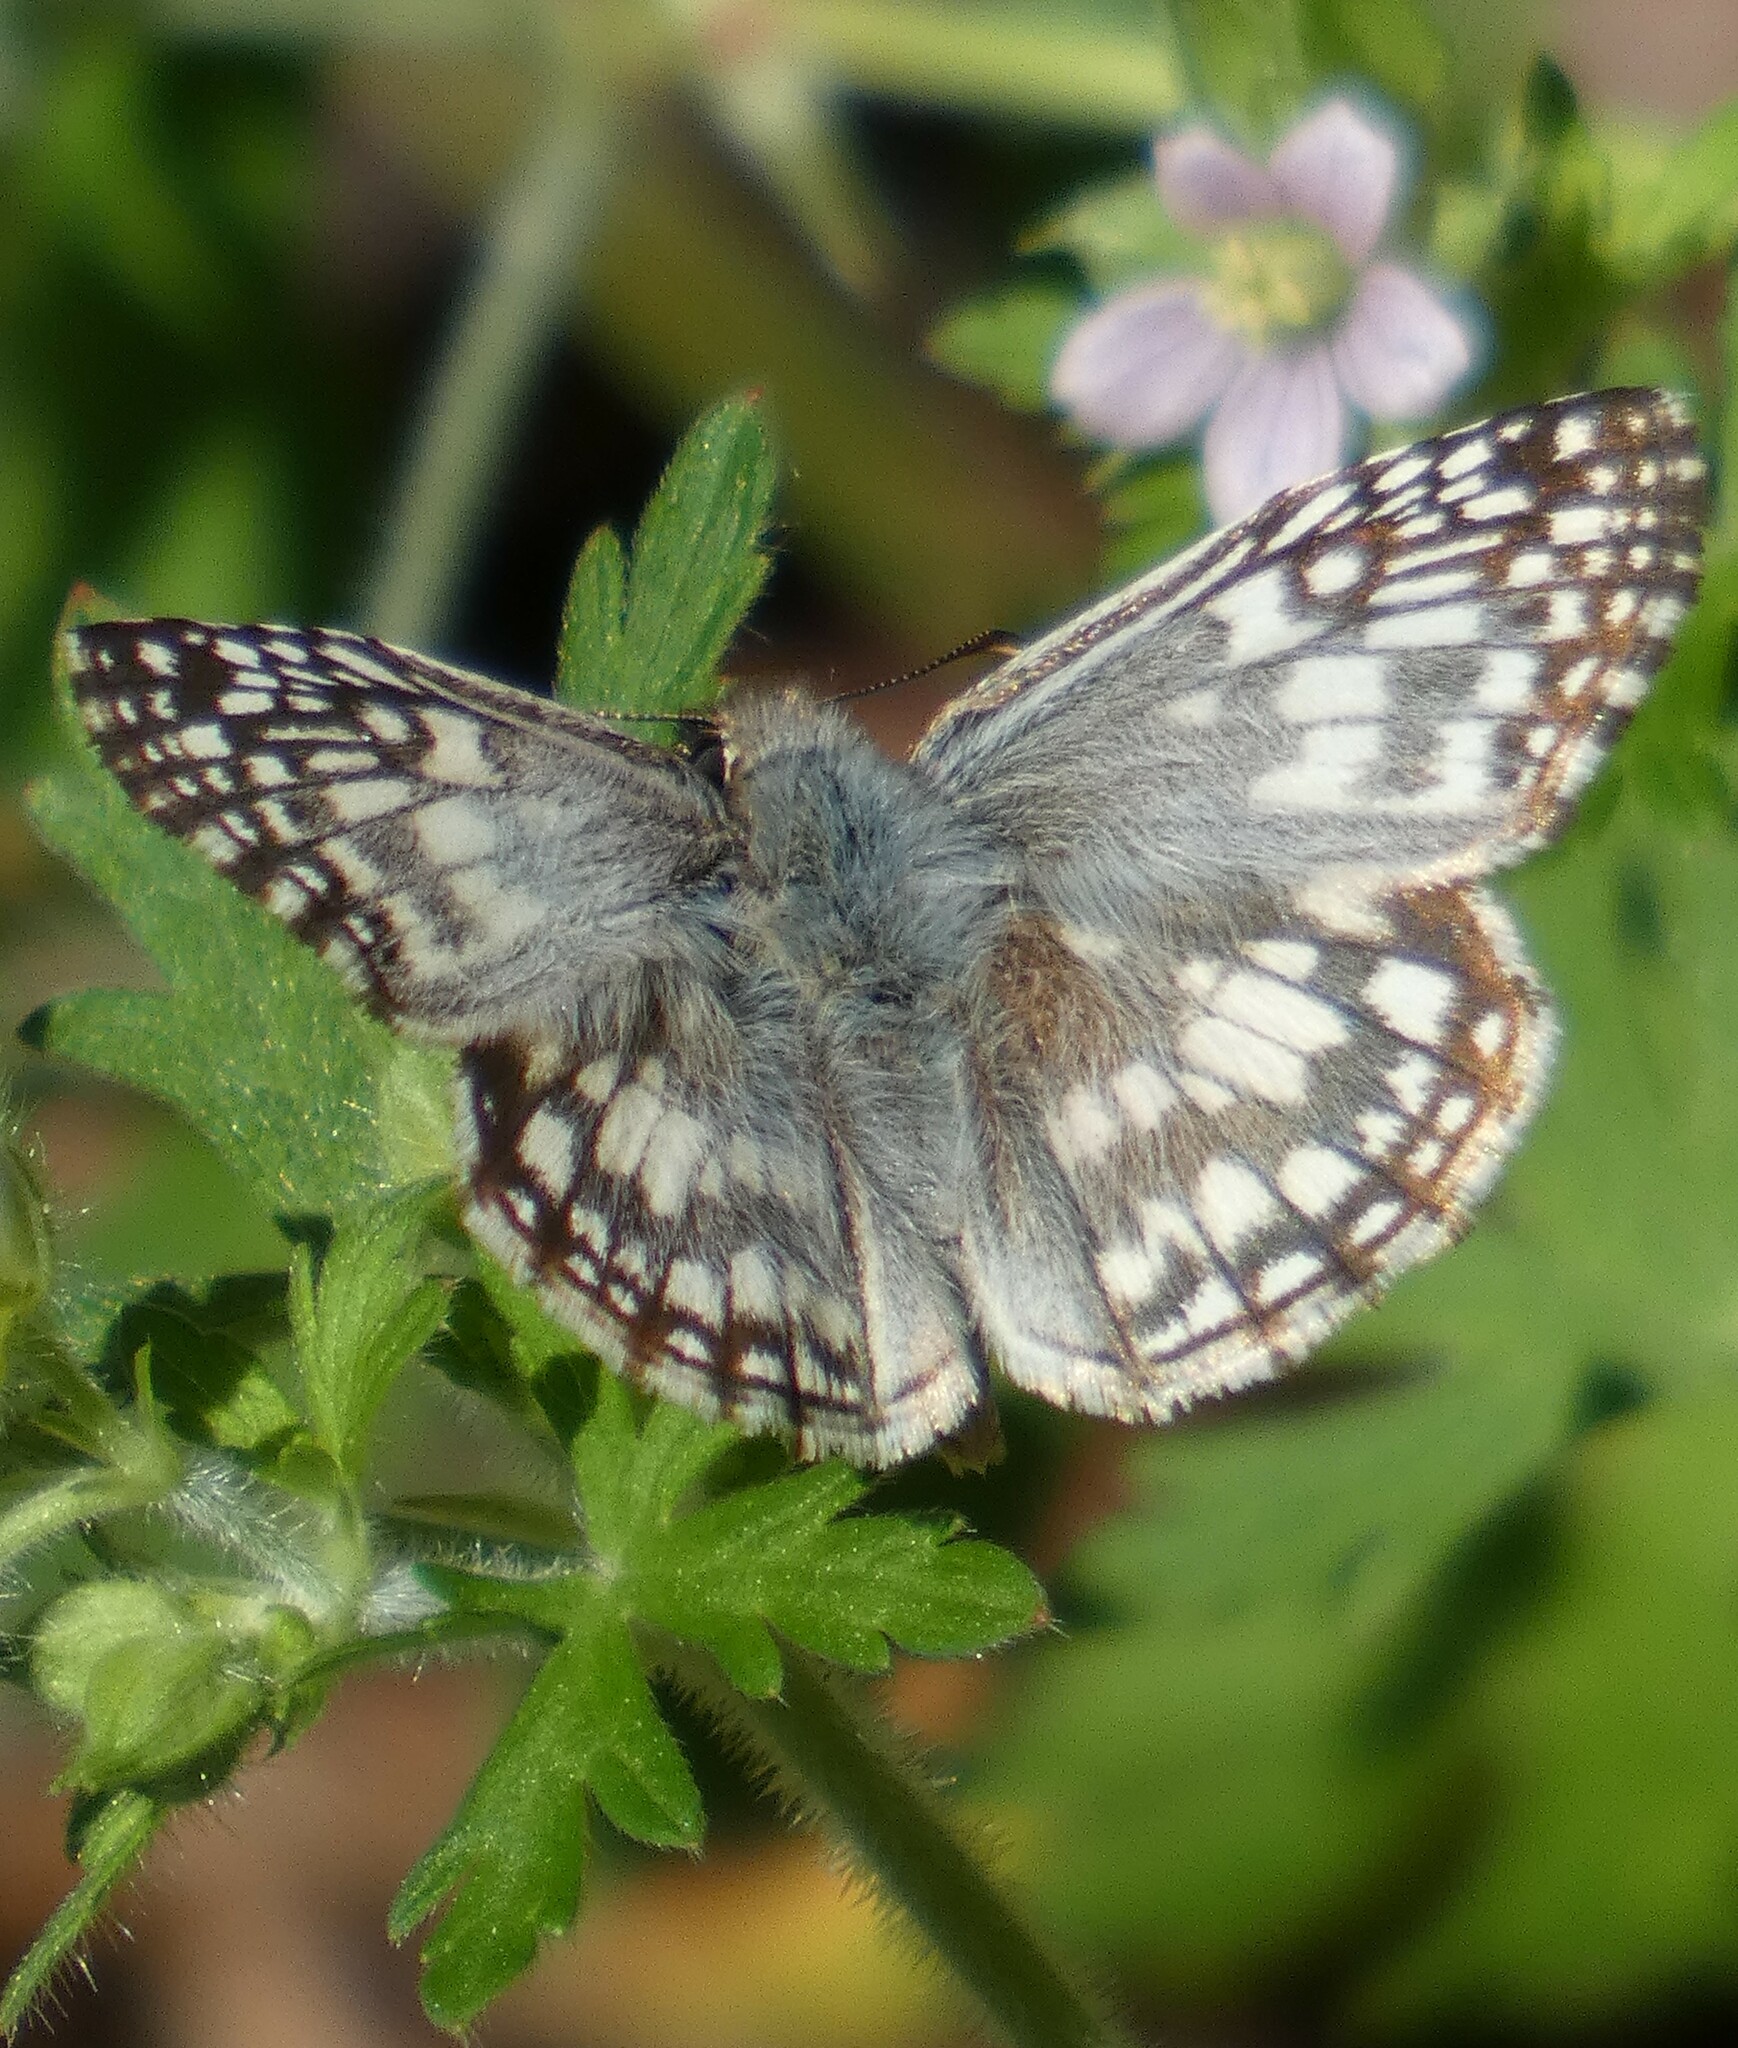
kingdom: Animalia
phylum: Arthropoda
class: Insecta
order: Lepidoptera
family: Hesperiidae
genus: Pyrgus
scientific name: Pyrgus oileus
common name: Tropical checkered-skipper
